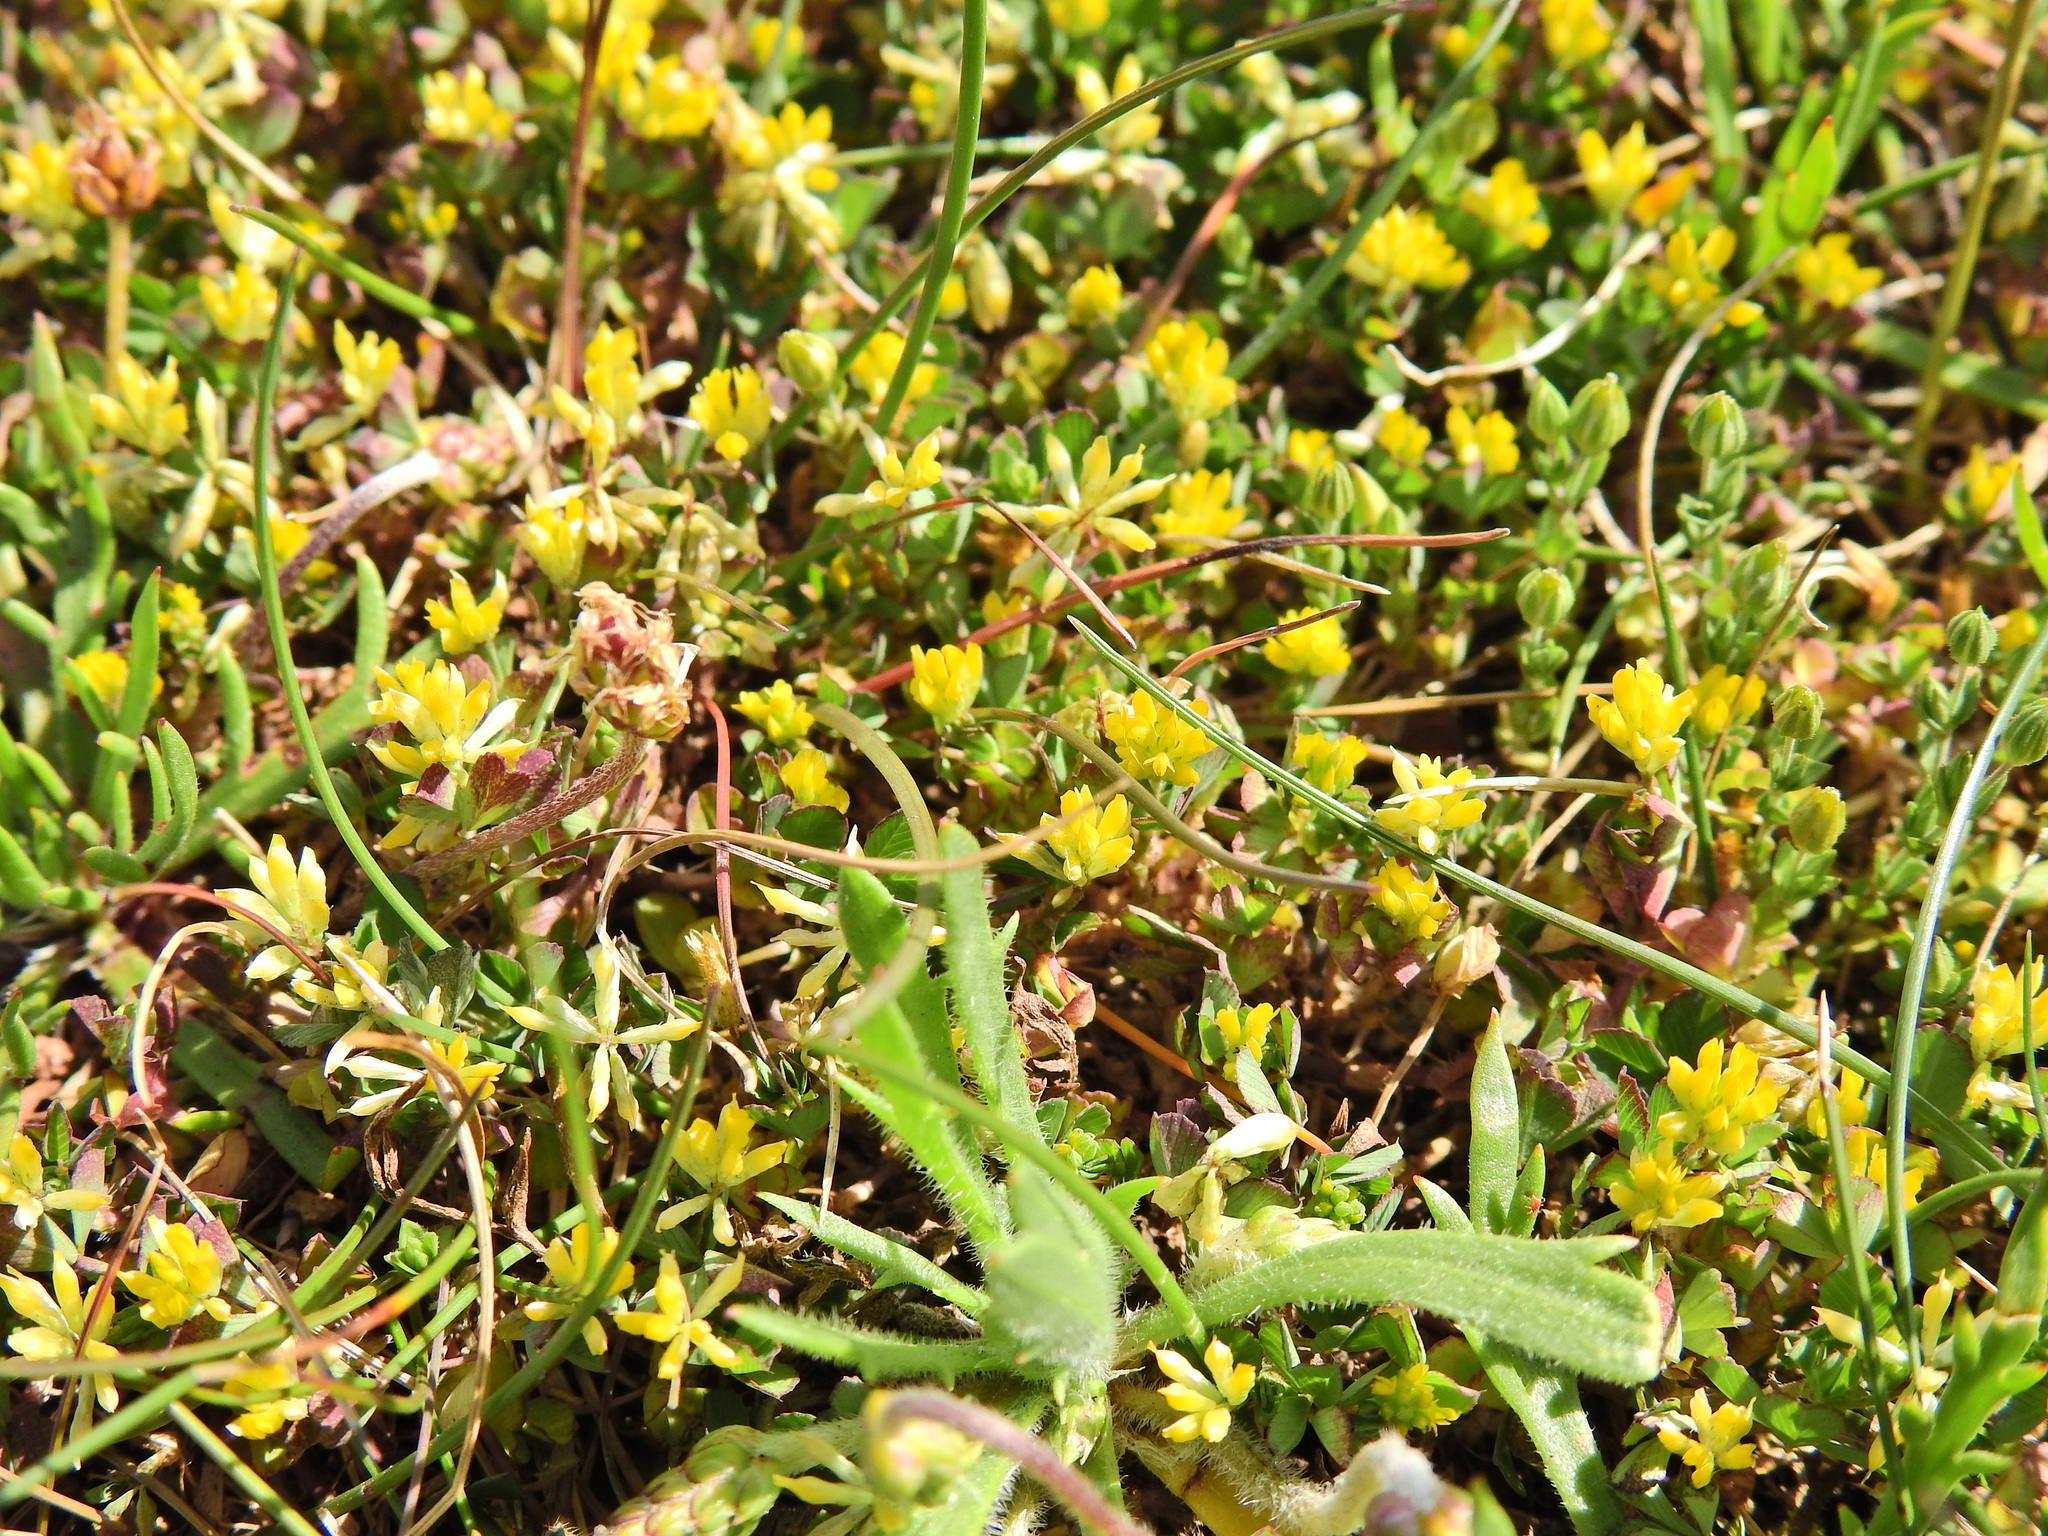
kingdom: Plantae
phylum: Tracheophyta
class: Magnoliopsida
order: Fabales
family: Fabaceae
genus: Trifolium
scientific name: Trifolium dubium
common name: Suckling clover
